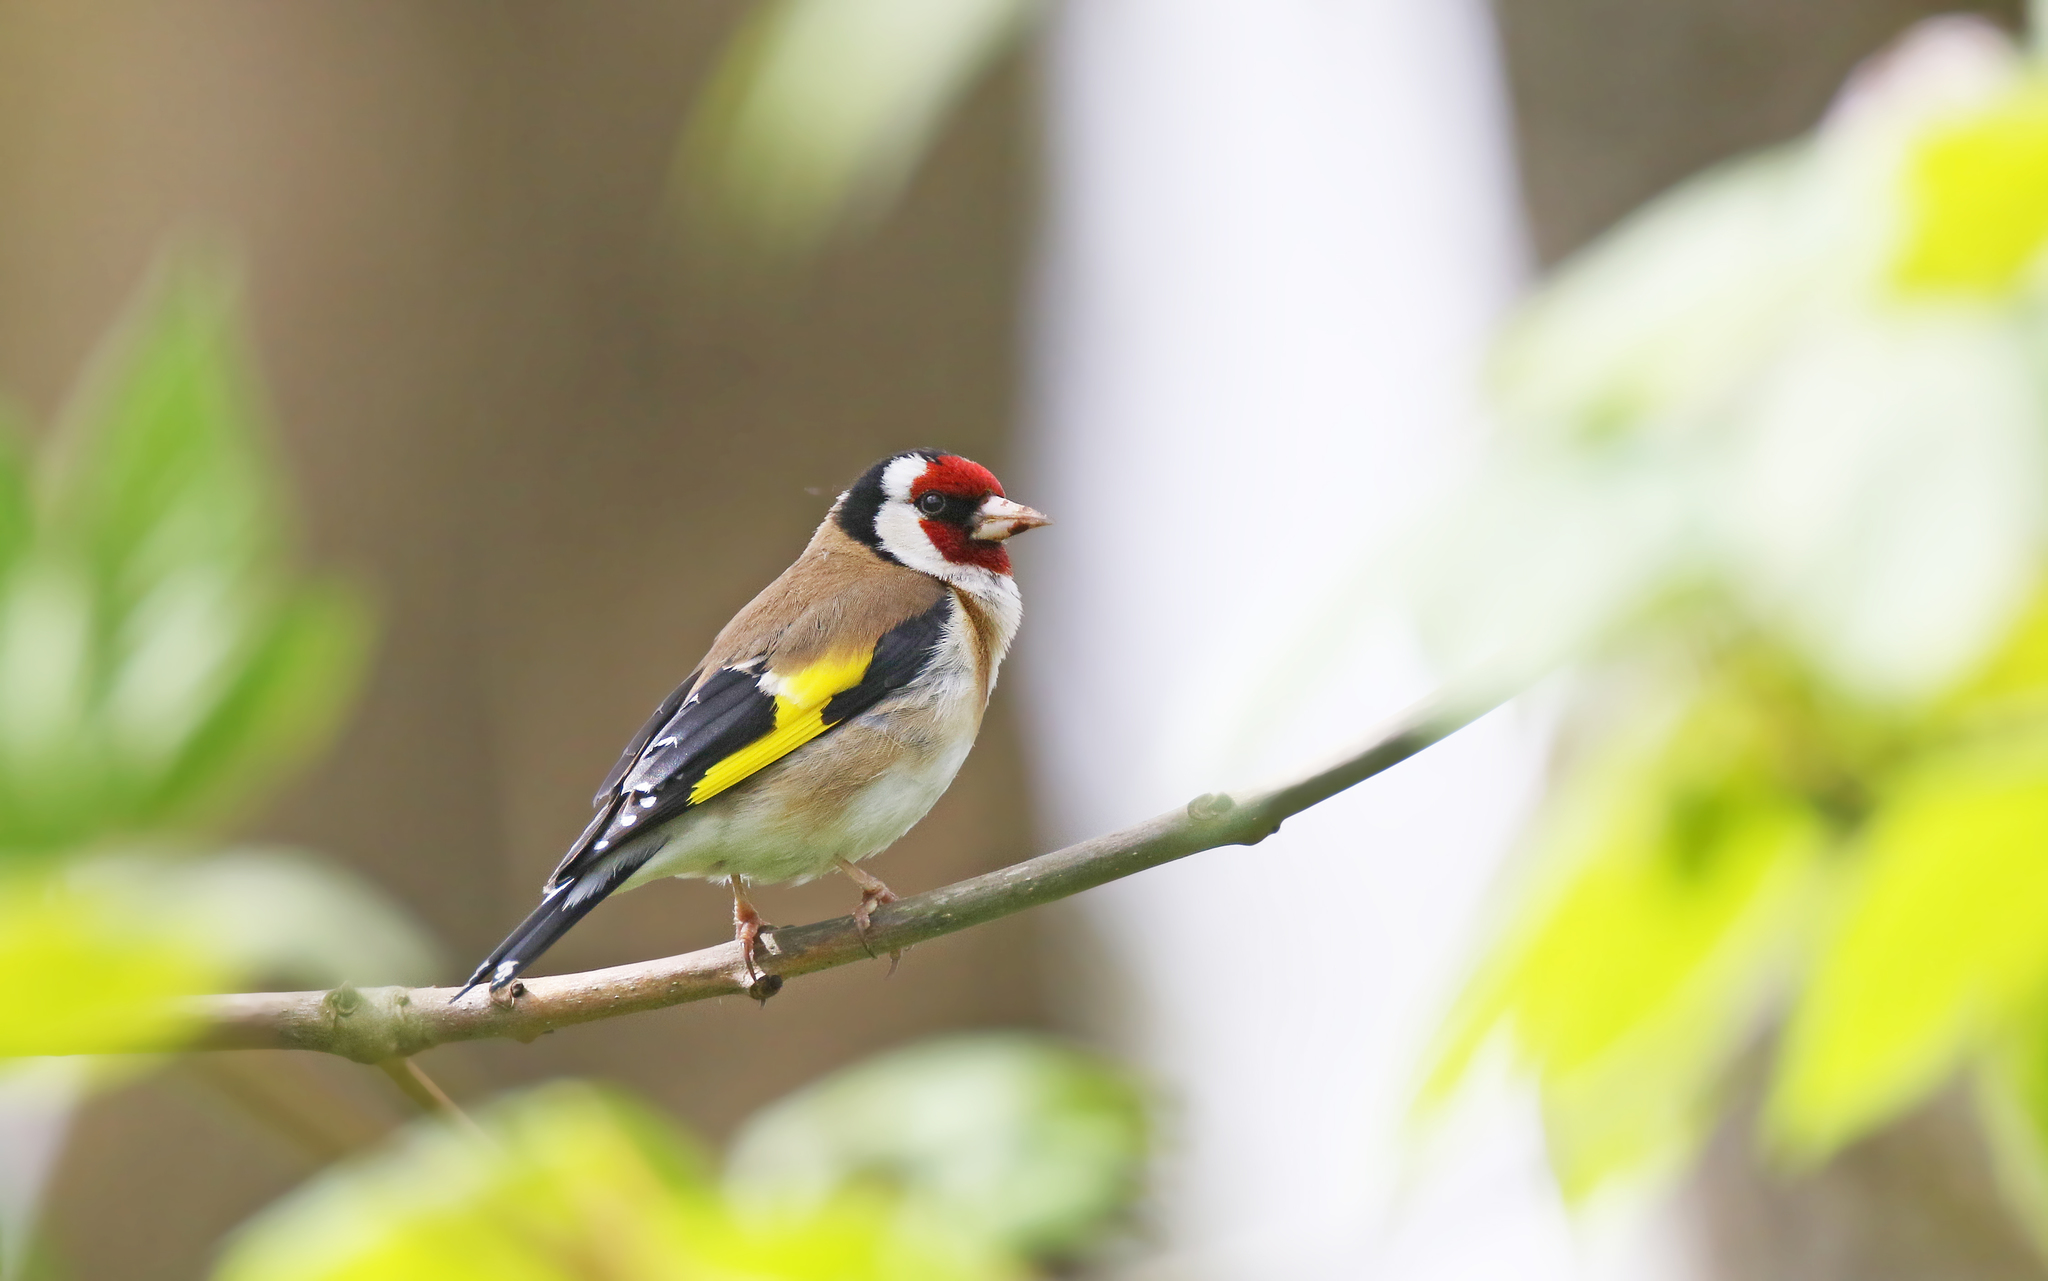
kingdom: Animalia
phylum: Chordata
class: Aves
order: Passeriformes
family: Fringillidae
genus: Carduelis
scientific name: Carduelis carduelis
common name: European goldfinch
